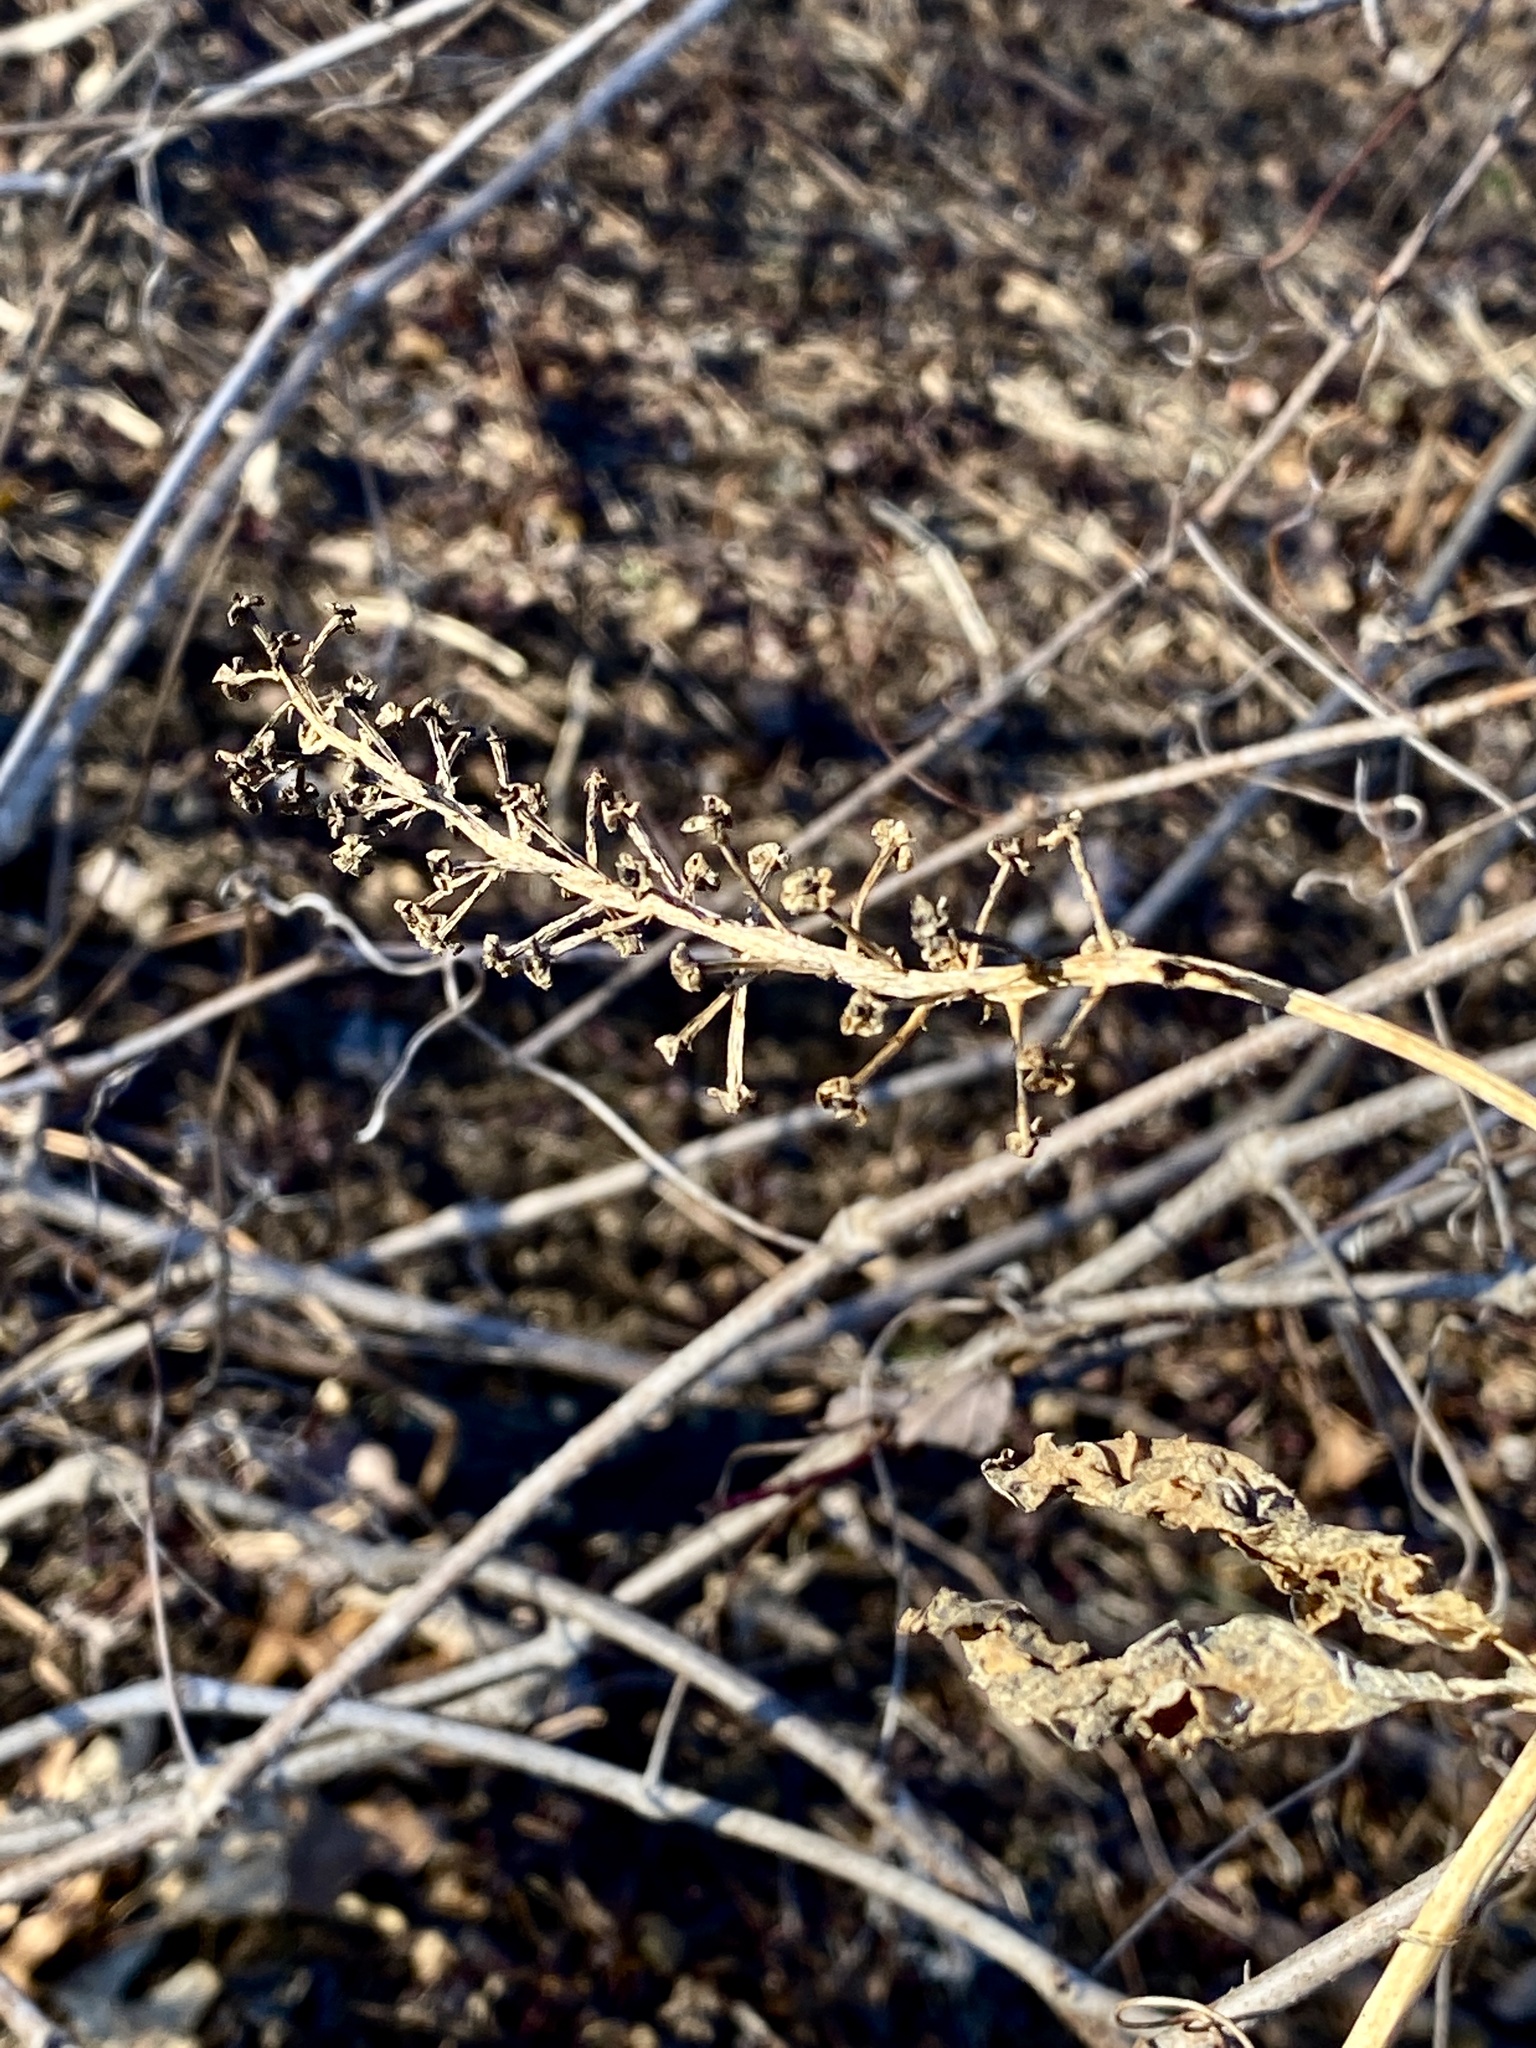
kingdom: Plantae
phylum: Tracheophyta
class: Magnoliopsida
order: Caryophyllales
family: Phytolaccaceae
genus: Phytolacca
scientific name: Phytolacca americana
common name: American pokeweed
